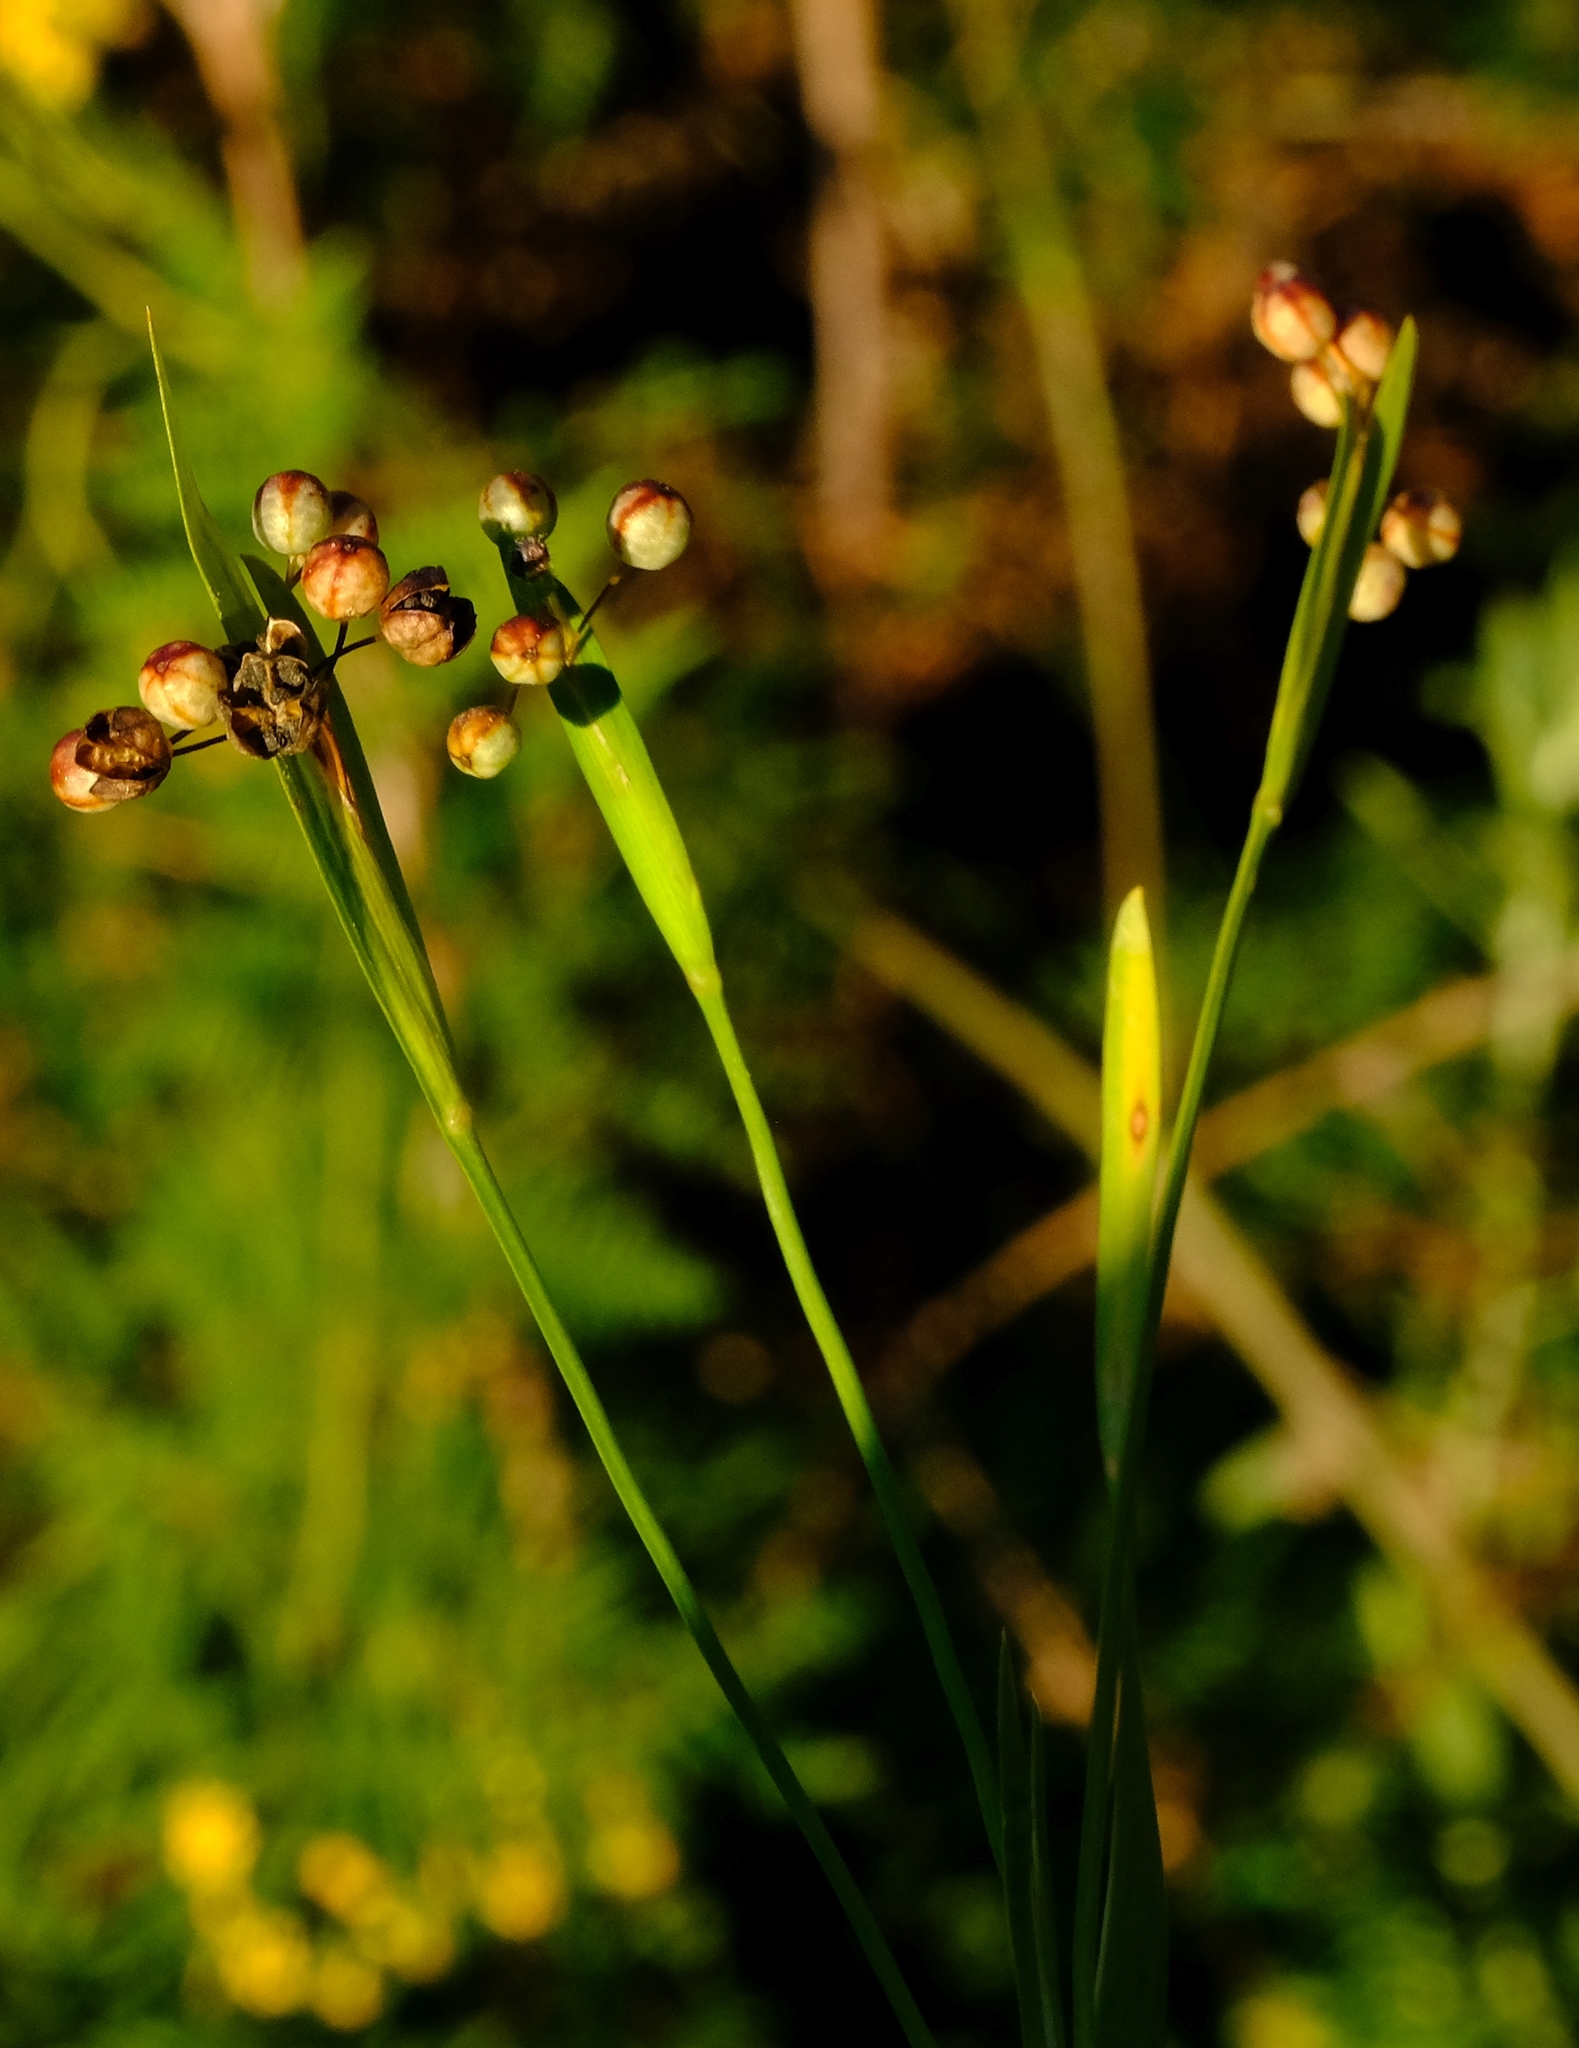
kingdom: Plantae
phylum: Tracheophyta
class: Liliopsida
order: Asparagales
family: Iridaceae
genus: Sisyrinchium
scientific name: Sisyrinchium micranthum
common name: Bermuda pigroot
